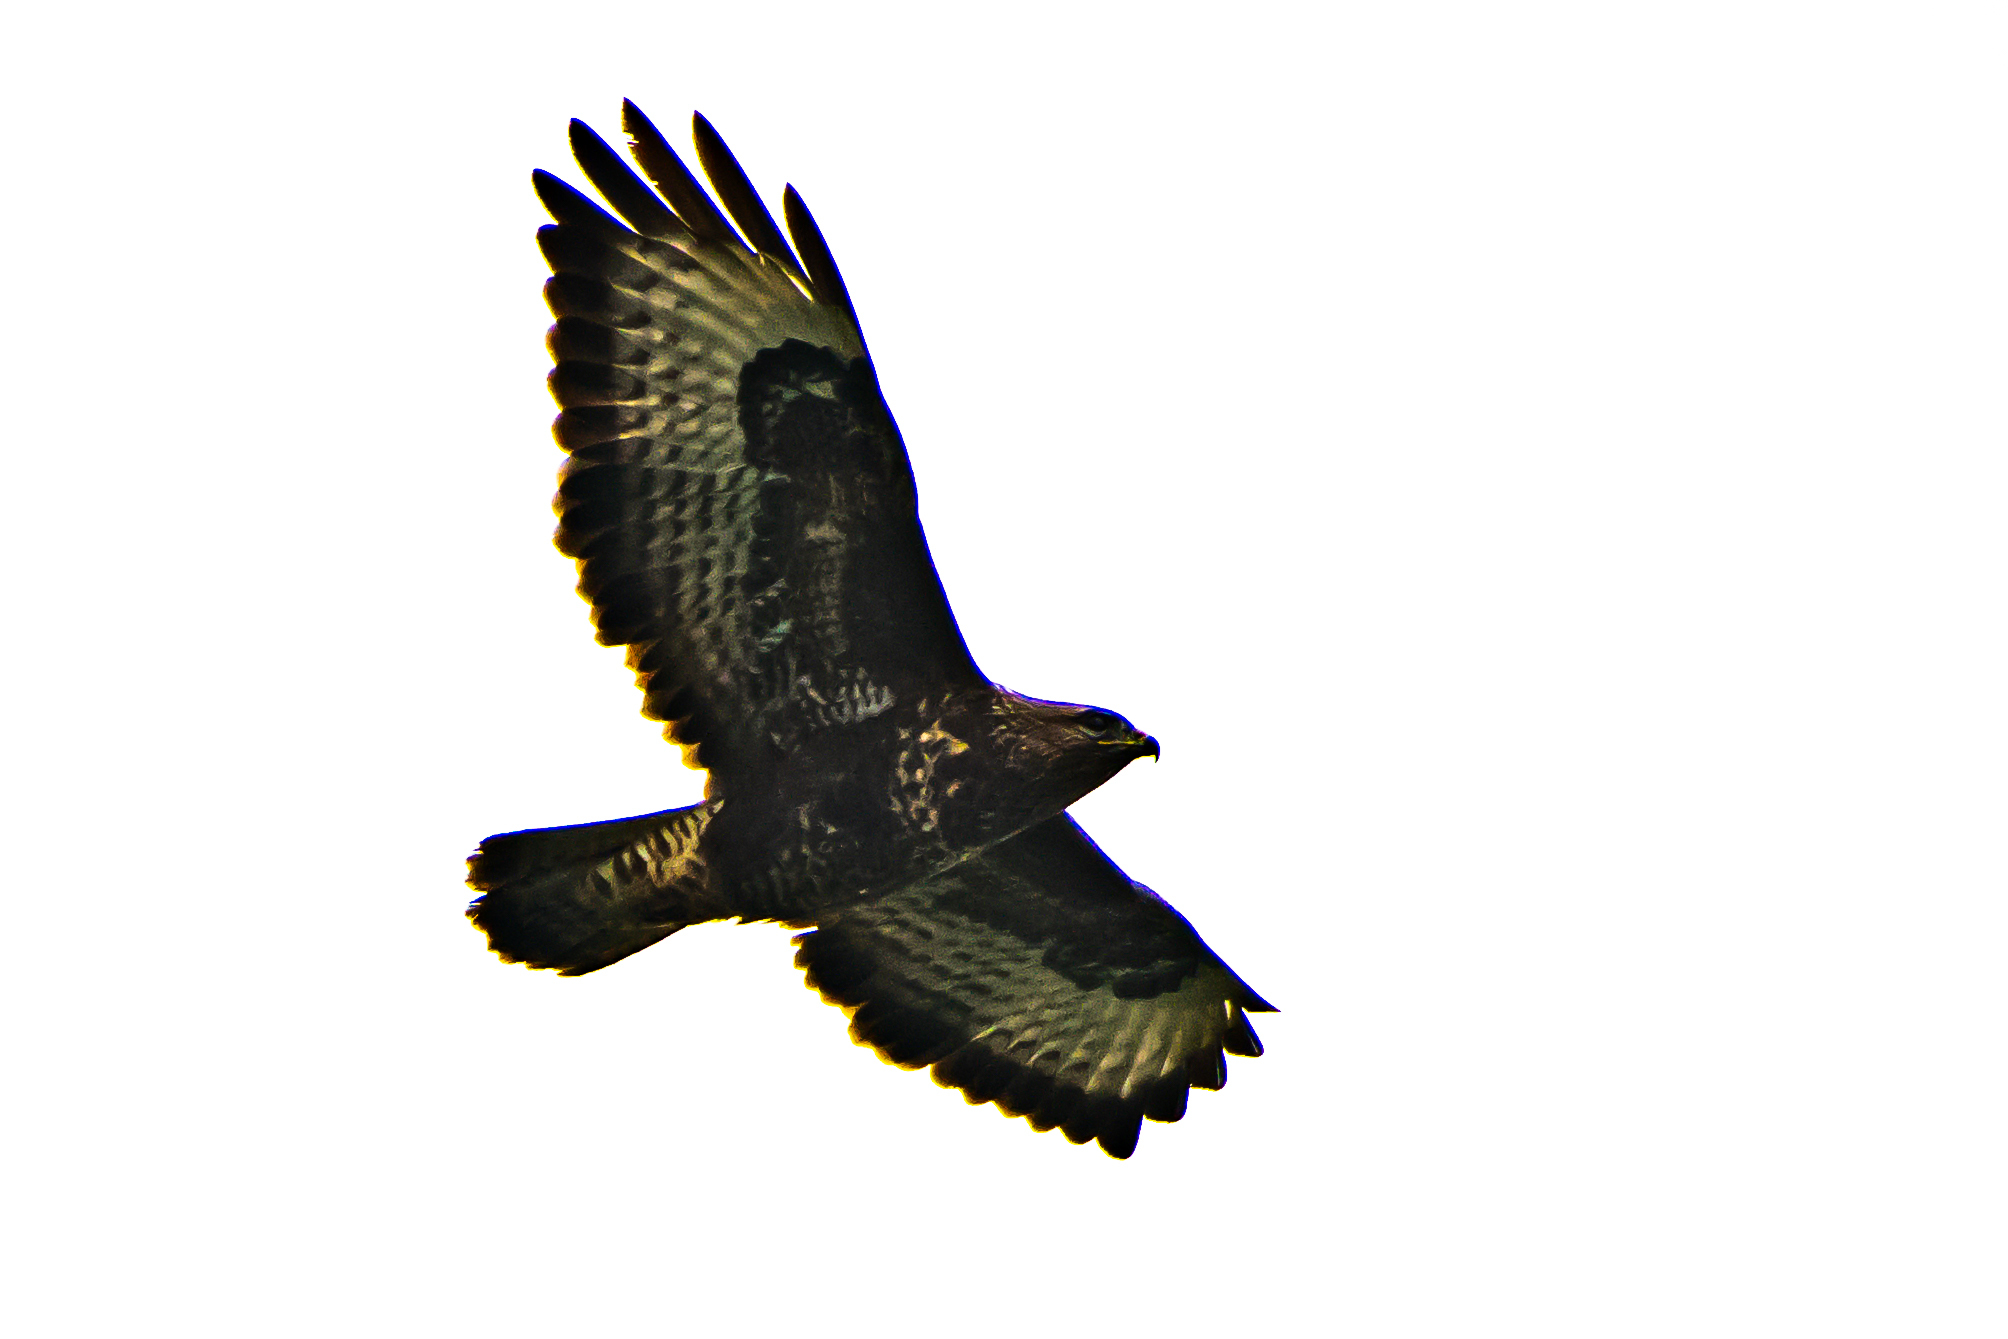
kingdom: Animalia
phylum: Chordata
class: Aves
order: Accipitriformes
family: Accipitridae
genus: Buteo
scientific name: Buteo buteo
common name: Common buzzard
